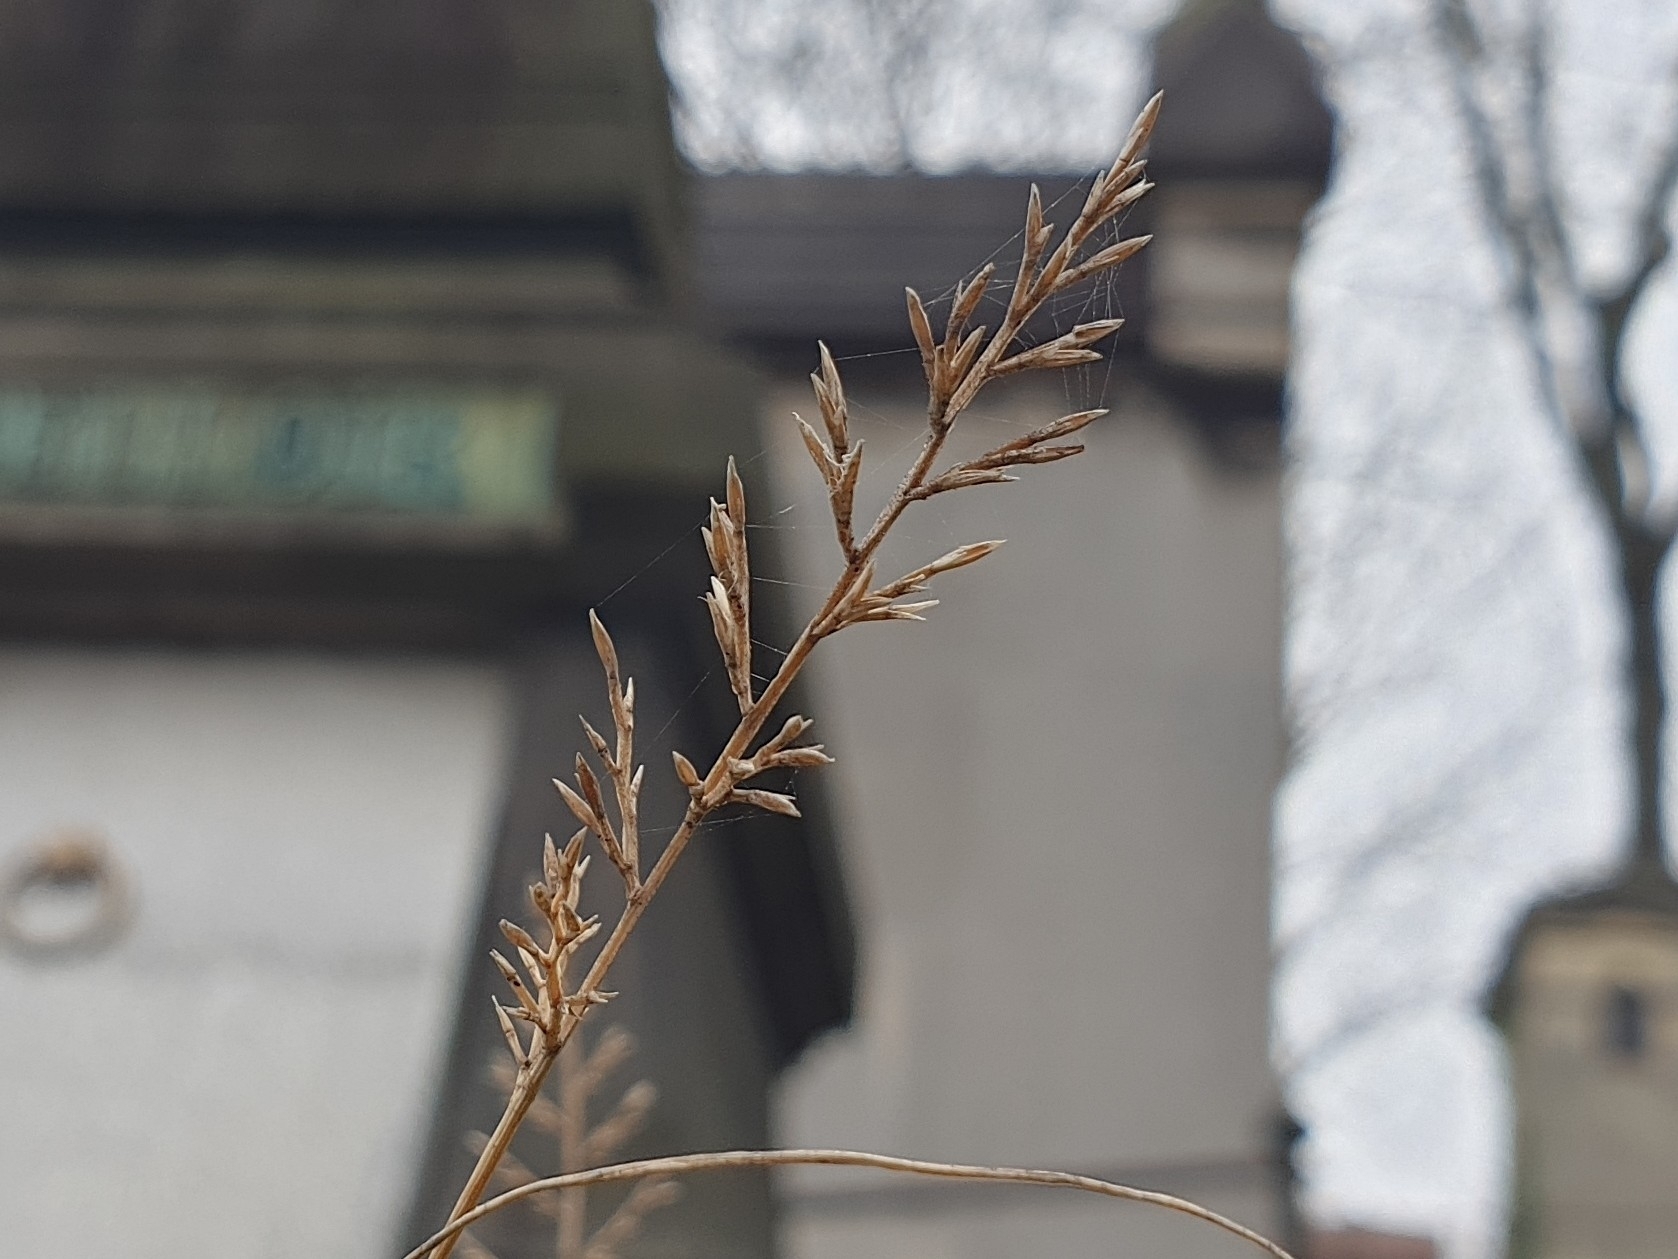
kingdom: Plantae
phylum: Tracheophyta
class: Liliopsida
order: Poales
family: Poaceae
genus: Catapodium
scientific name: Catapodium rigidum
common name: Fern-grass
